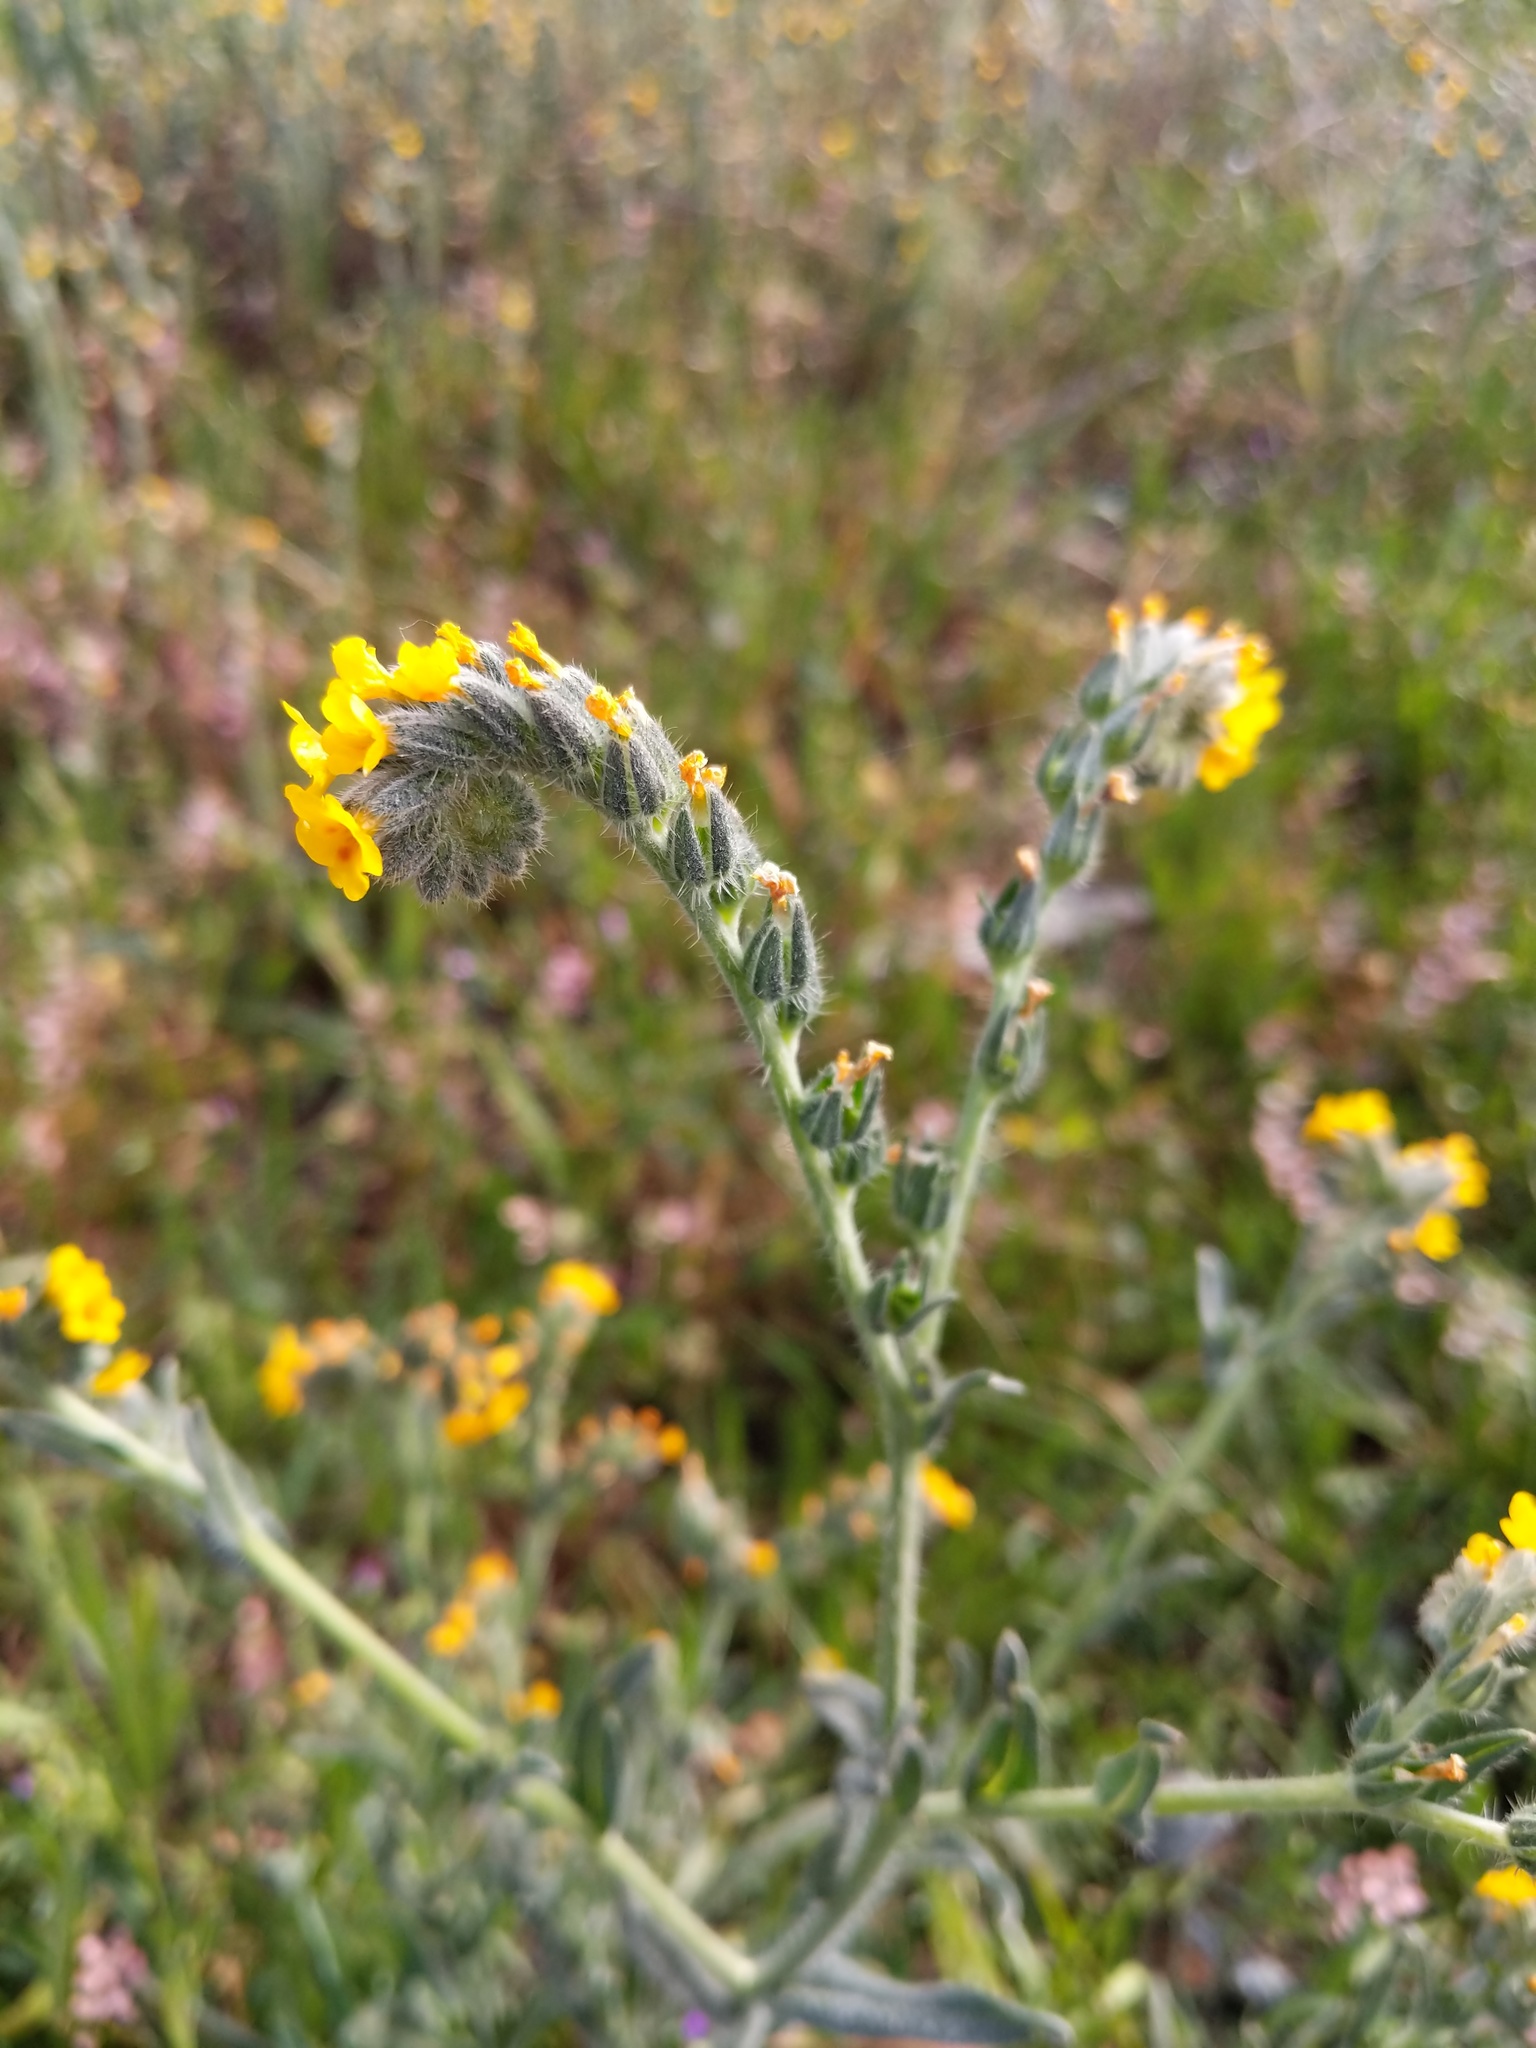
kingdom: Plantae
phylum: Tracheophyta
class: Magnoliopsida
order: Boraginales
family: Boraginaceae
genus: Amsinckia
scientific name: Amsinckia menziesii
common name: Menzies' fiddleneck
